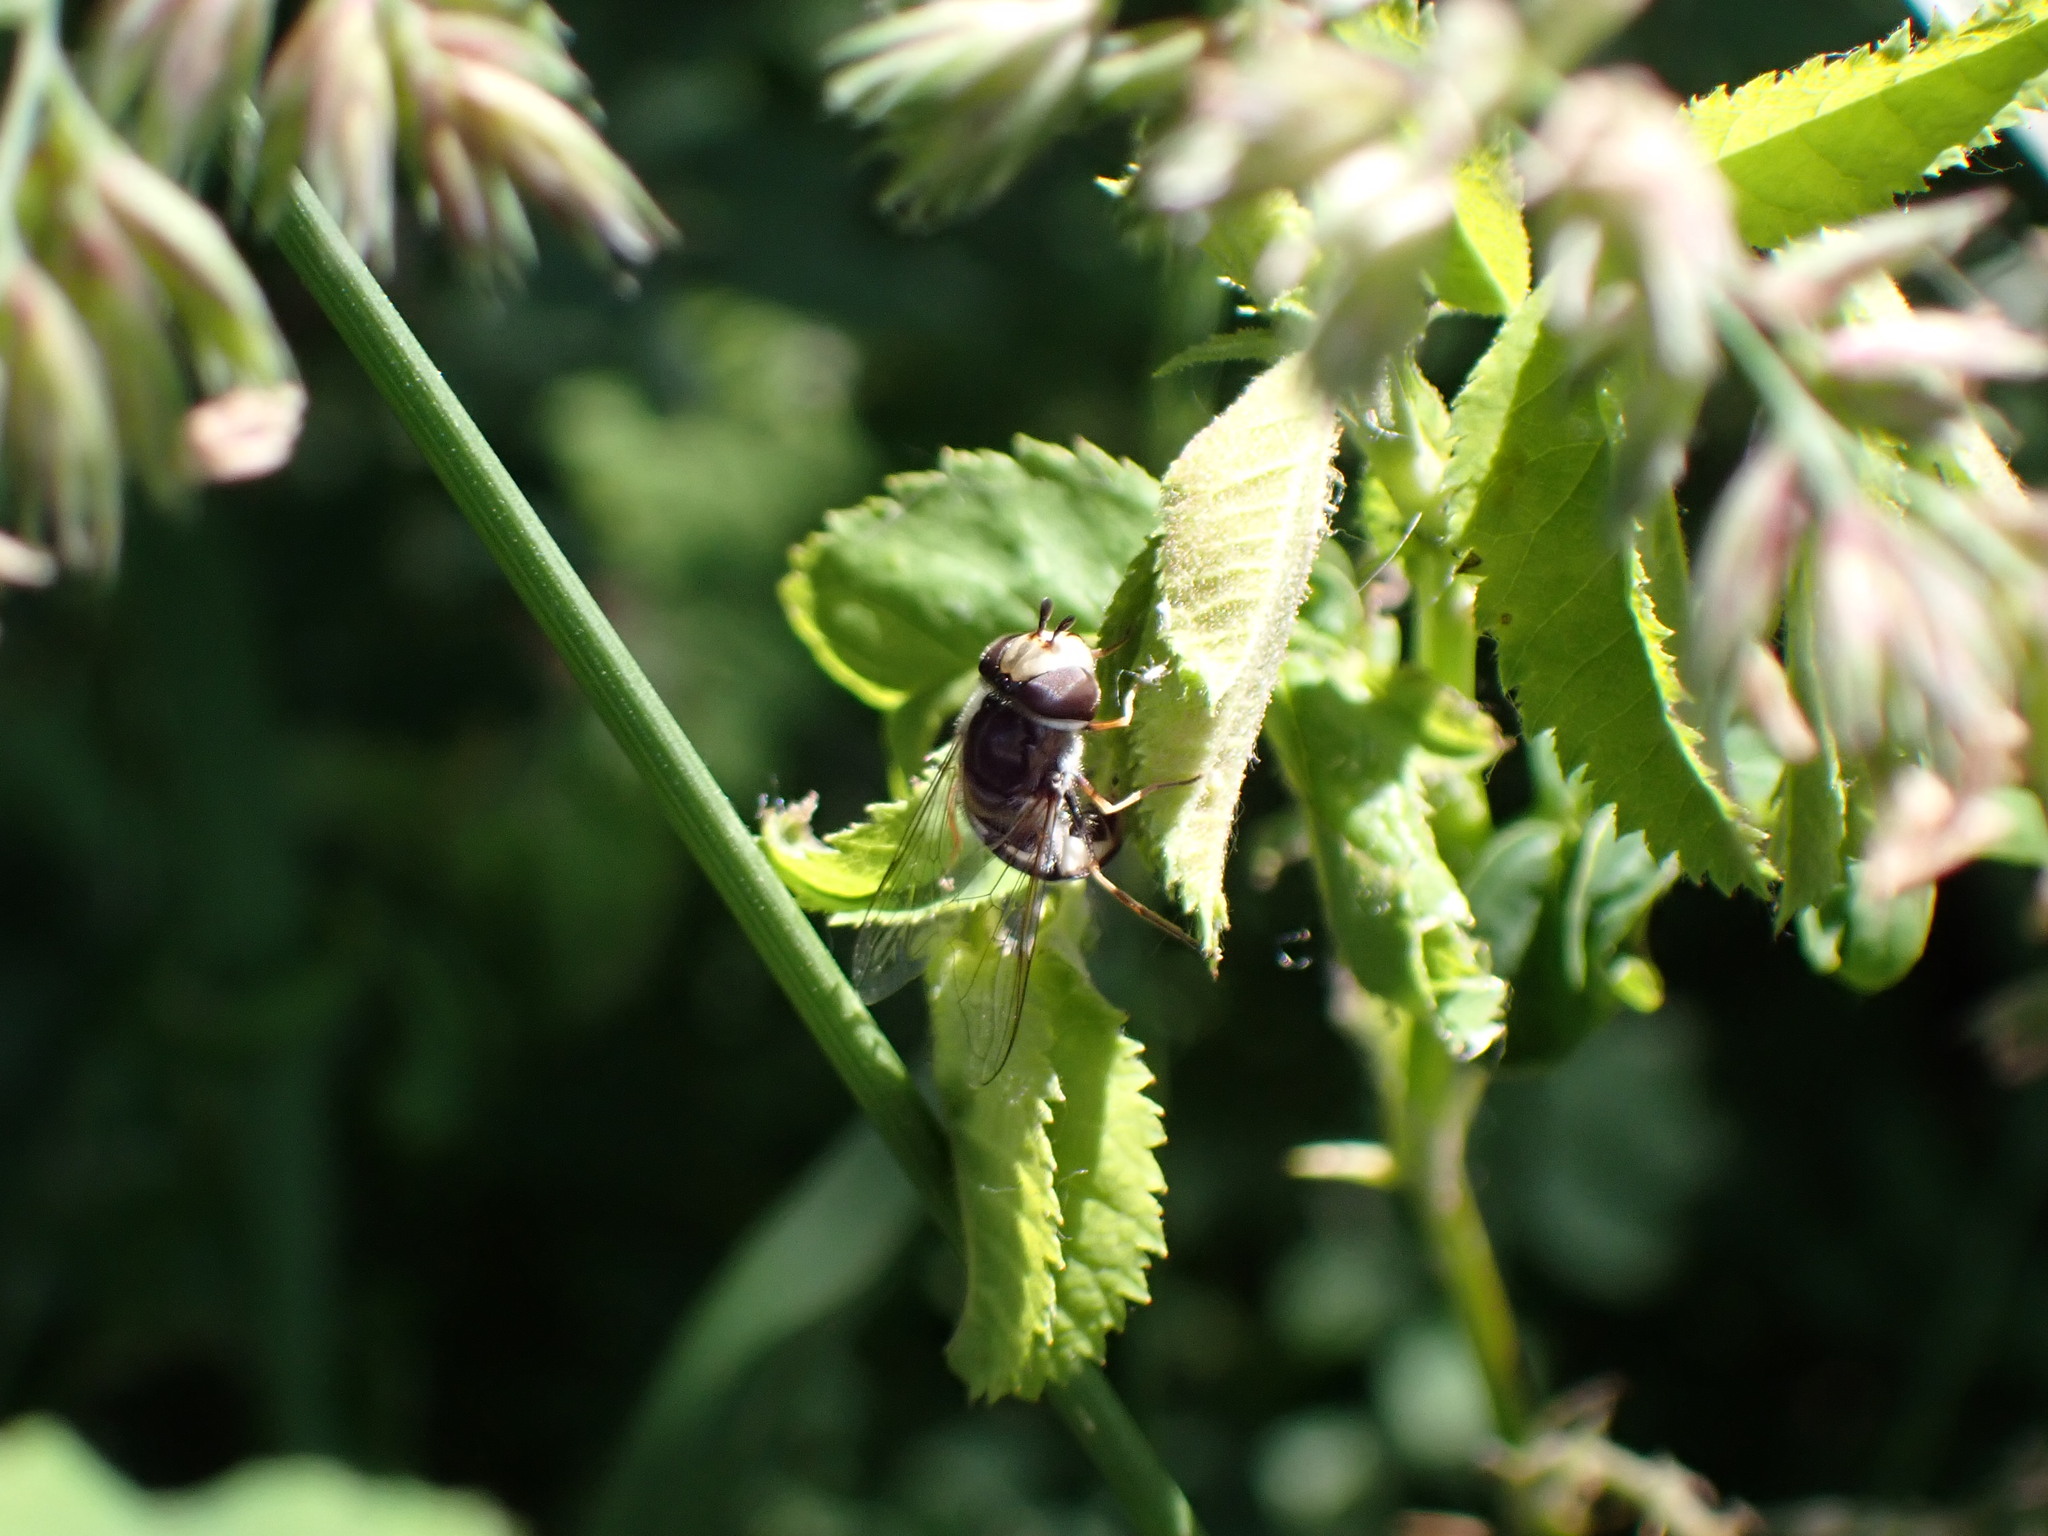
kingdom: Animalia
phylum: Arthropoda
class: Insecta
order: Diptera
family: Syrphidae
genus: Scaeva
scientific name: Scaeva affinis
